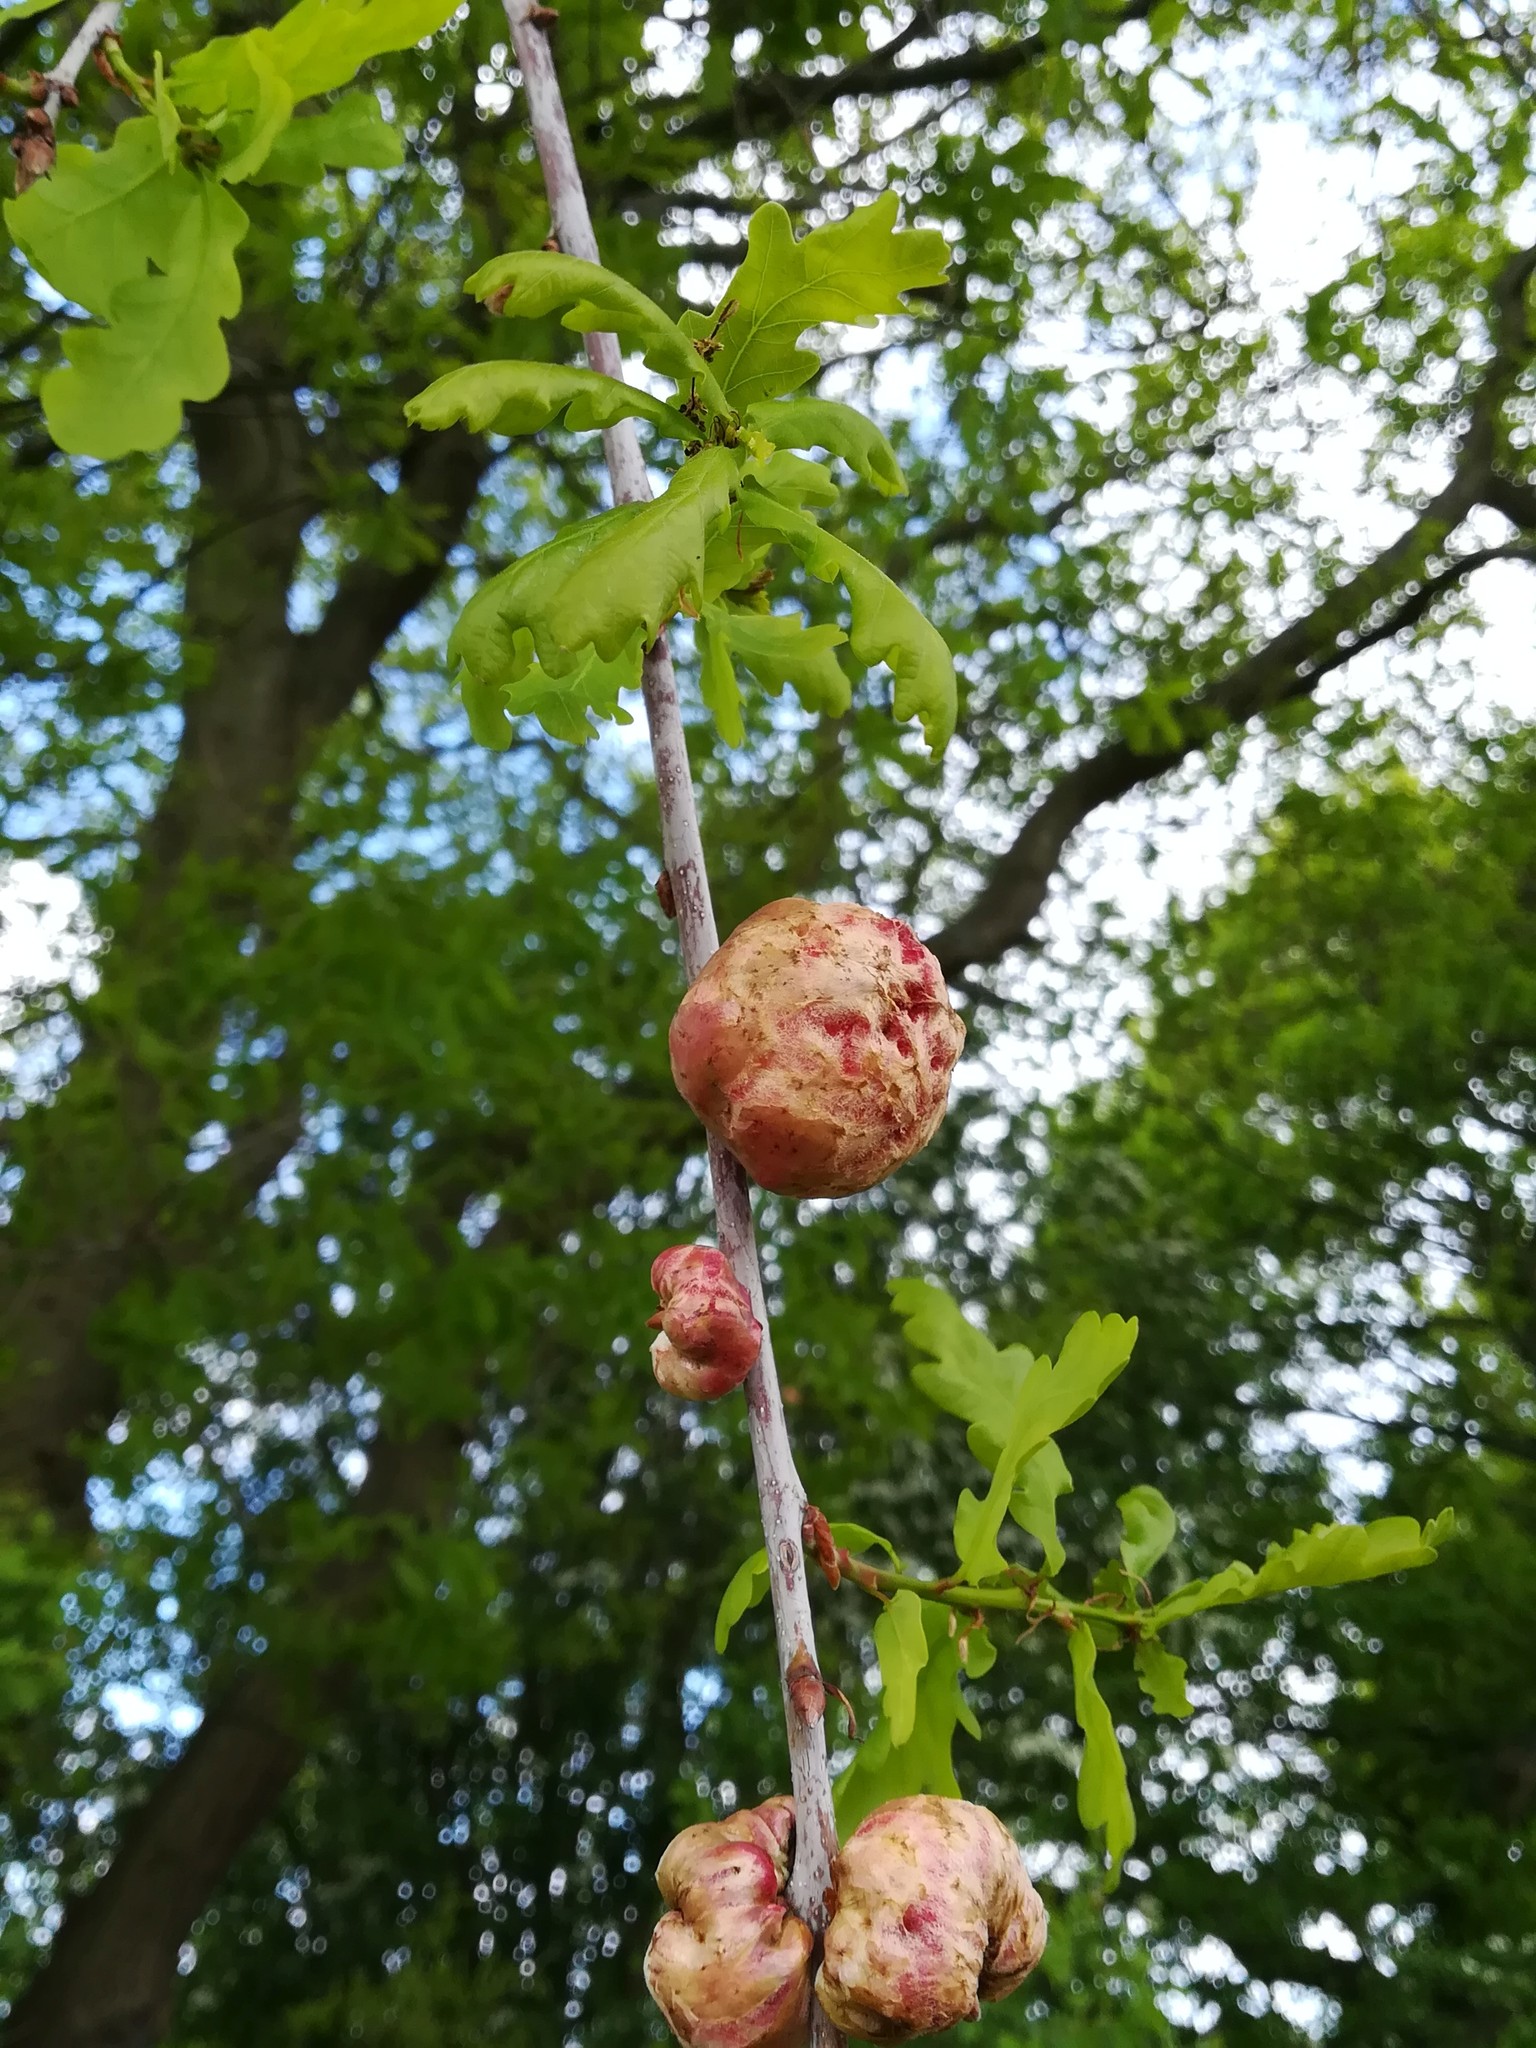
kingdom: Animalia
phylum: Arthropoda
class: Insecta
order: Hymenoptera
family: Cynipidae
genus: Biorhiza
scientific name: Biorhiza pallida
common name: Oak apple
